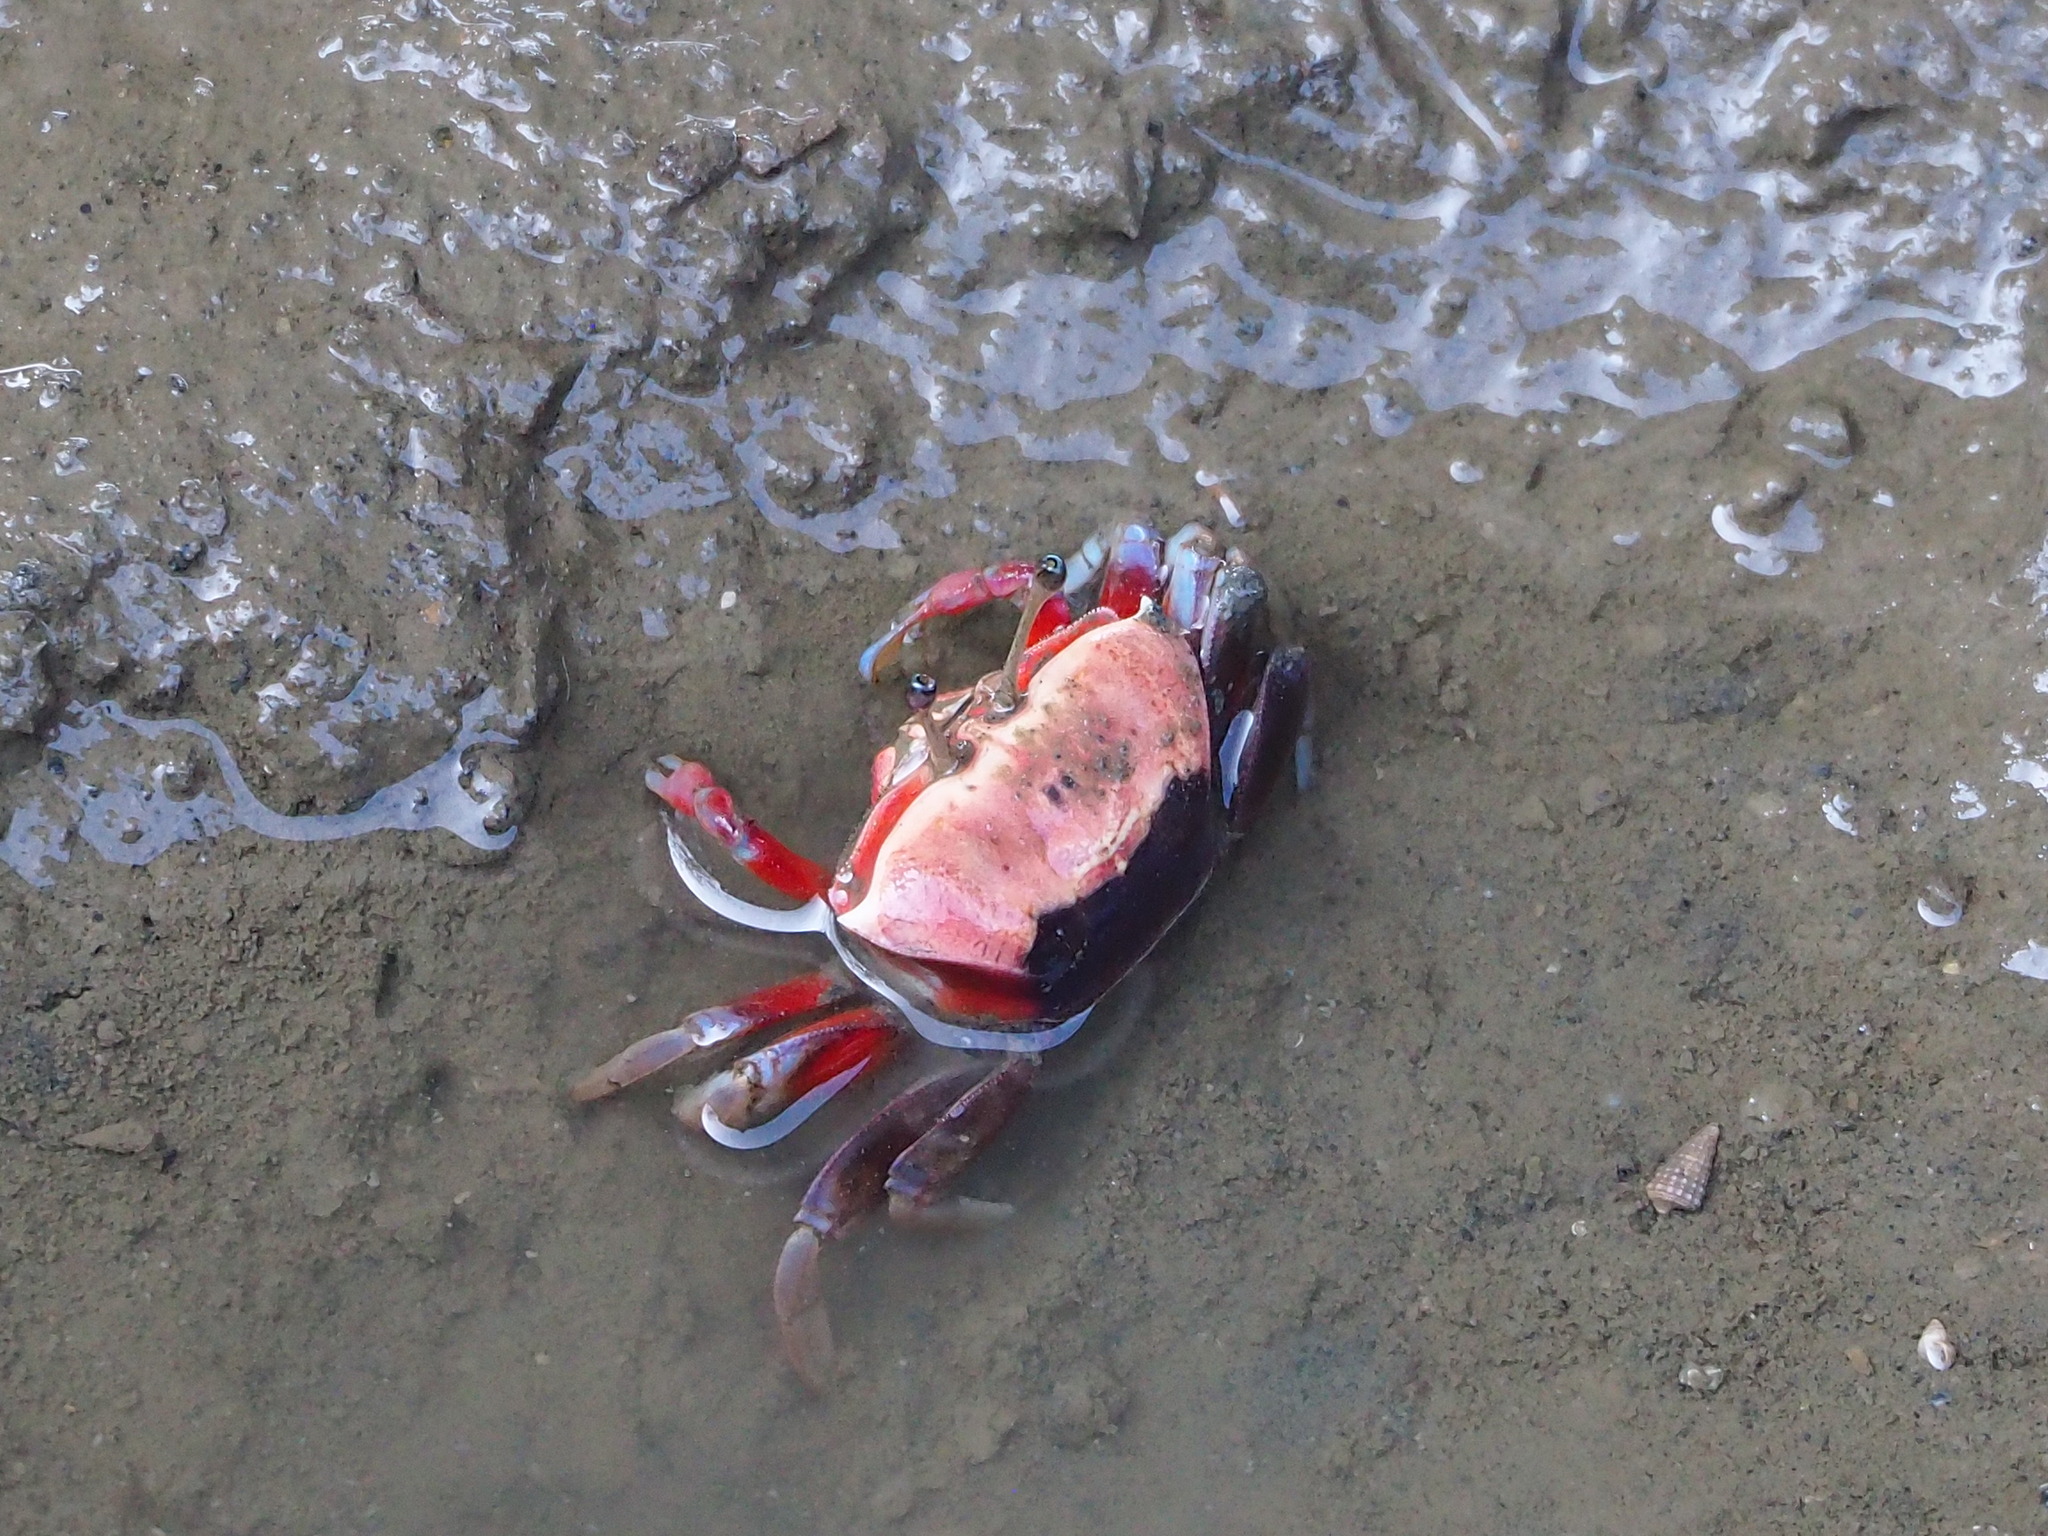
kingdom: Animalia
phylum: Arthropoda
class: Malacostraca
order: Decapoda
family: Ocypodidae
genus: Tubuca
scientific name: Tubuca arcuata
